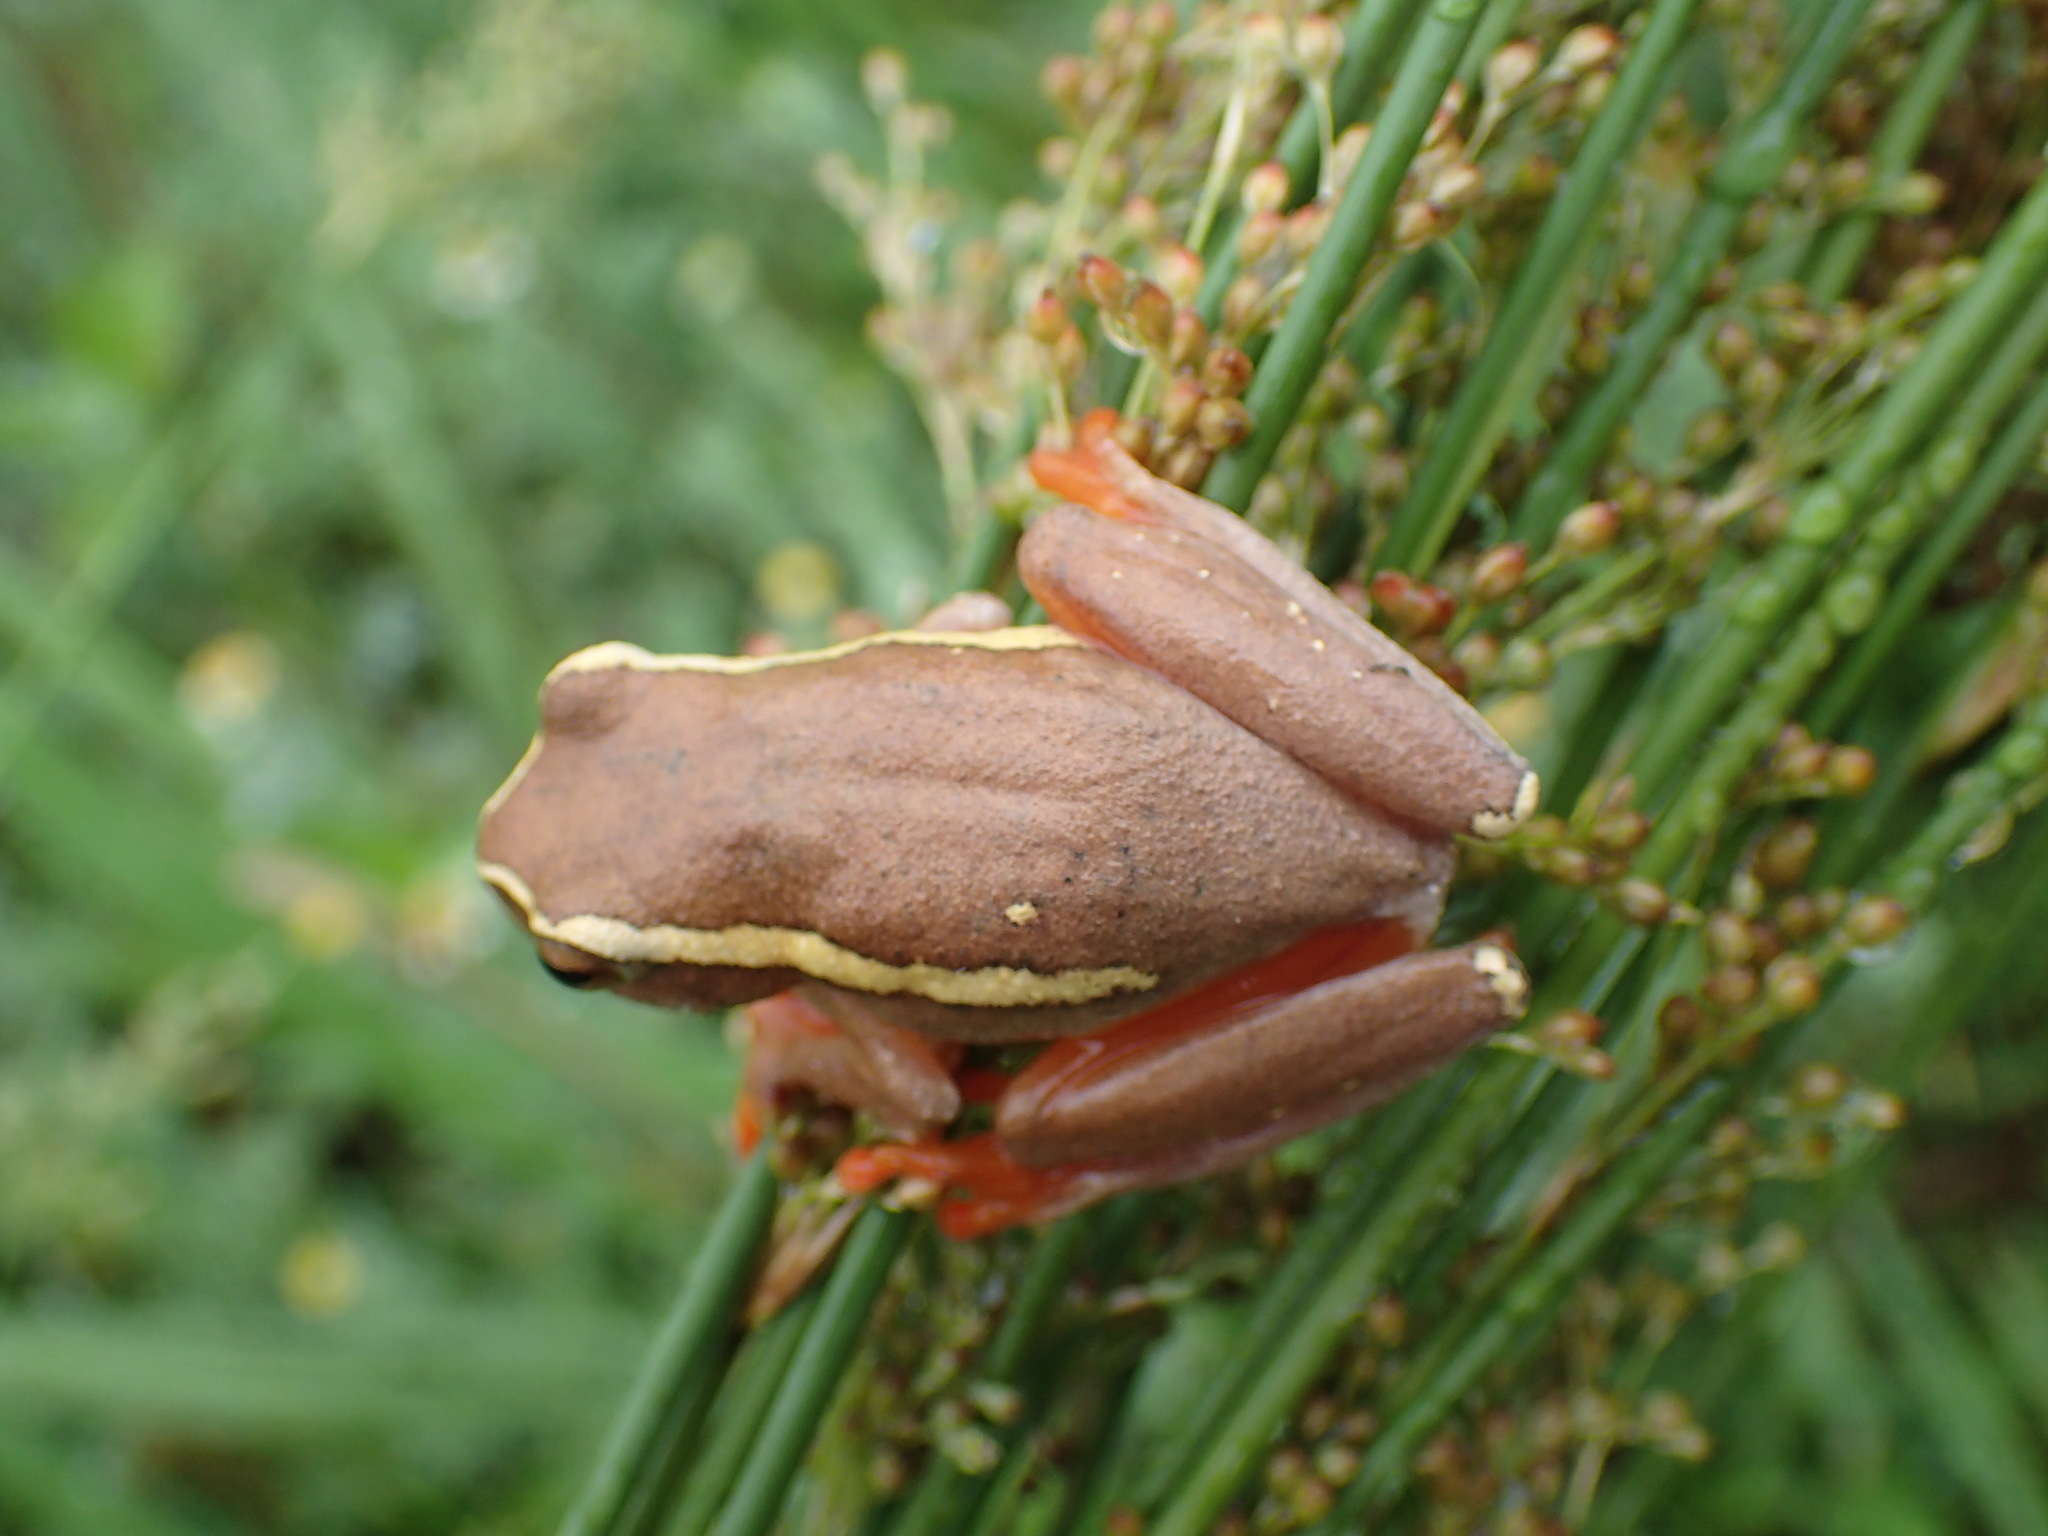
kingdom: Animalia
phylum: Chordata
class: Amphibia
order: Anura
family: Hyperoliidae
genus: Hyperolius
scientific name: Hyperolius semidiscus
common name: Yellow-striped reed frog
